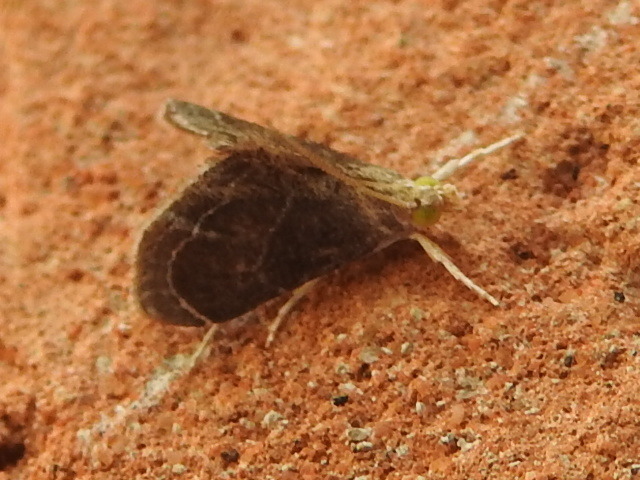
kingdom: Animalia
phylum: Arthropoda
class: Insecta
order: Lepidoptera
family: Crambidae
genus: Lipocosma
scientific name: Lipocosma polingi
